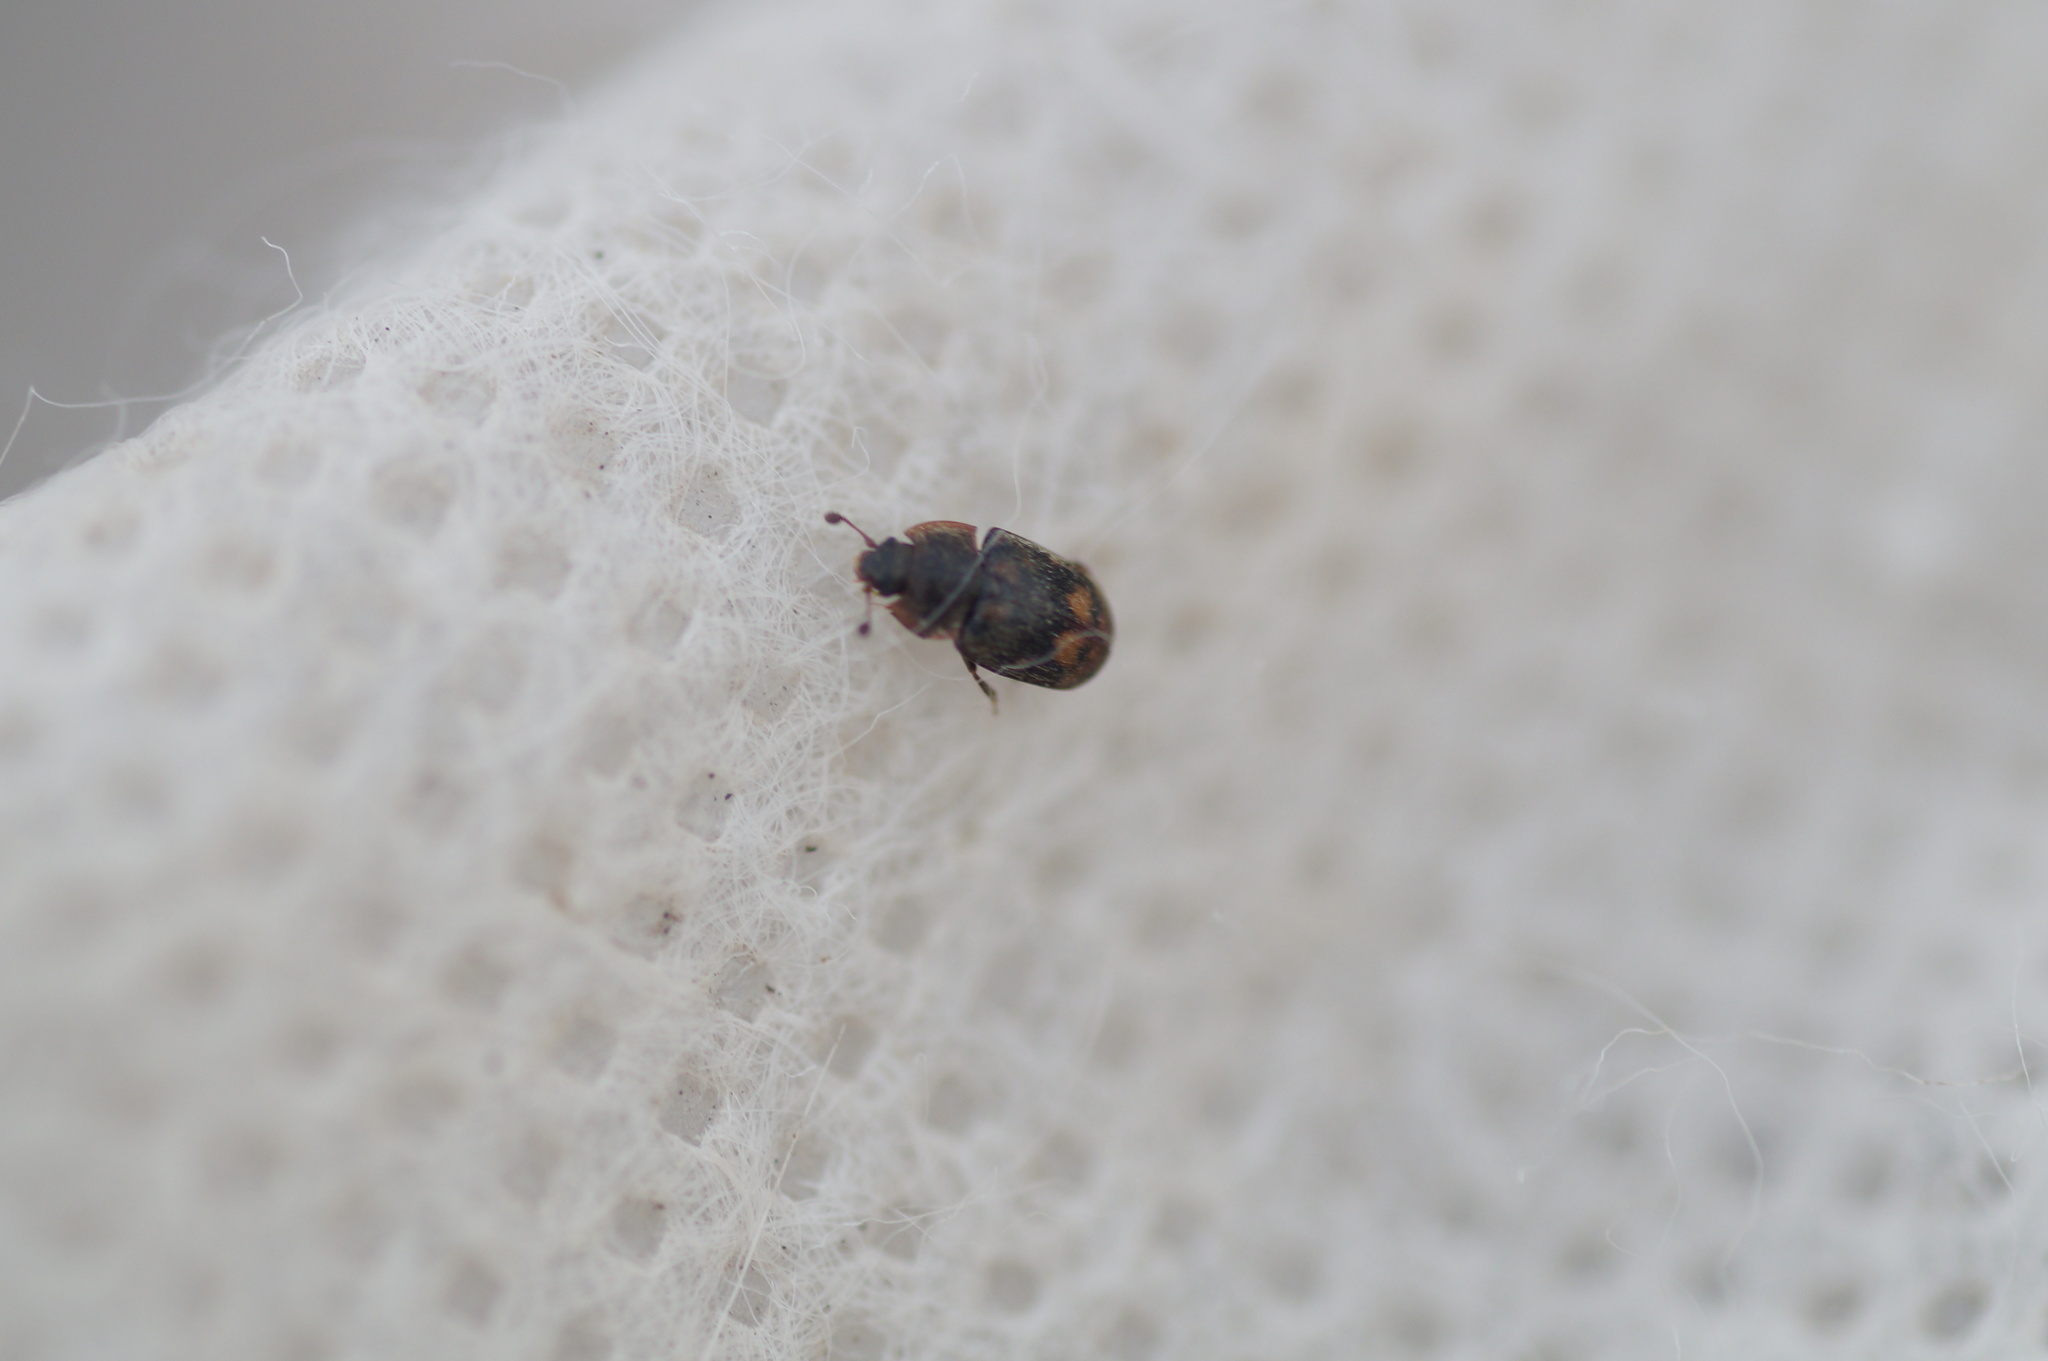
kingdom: Animalia
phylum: Arthropoda
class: Insecta
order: Coleoptera
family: Nitidulidae
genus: Omosita
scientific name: Omosita colon
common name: Sap-feeding beetle
